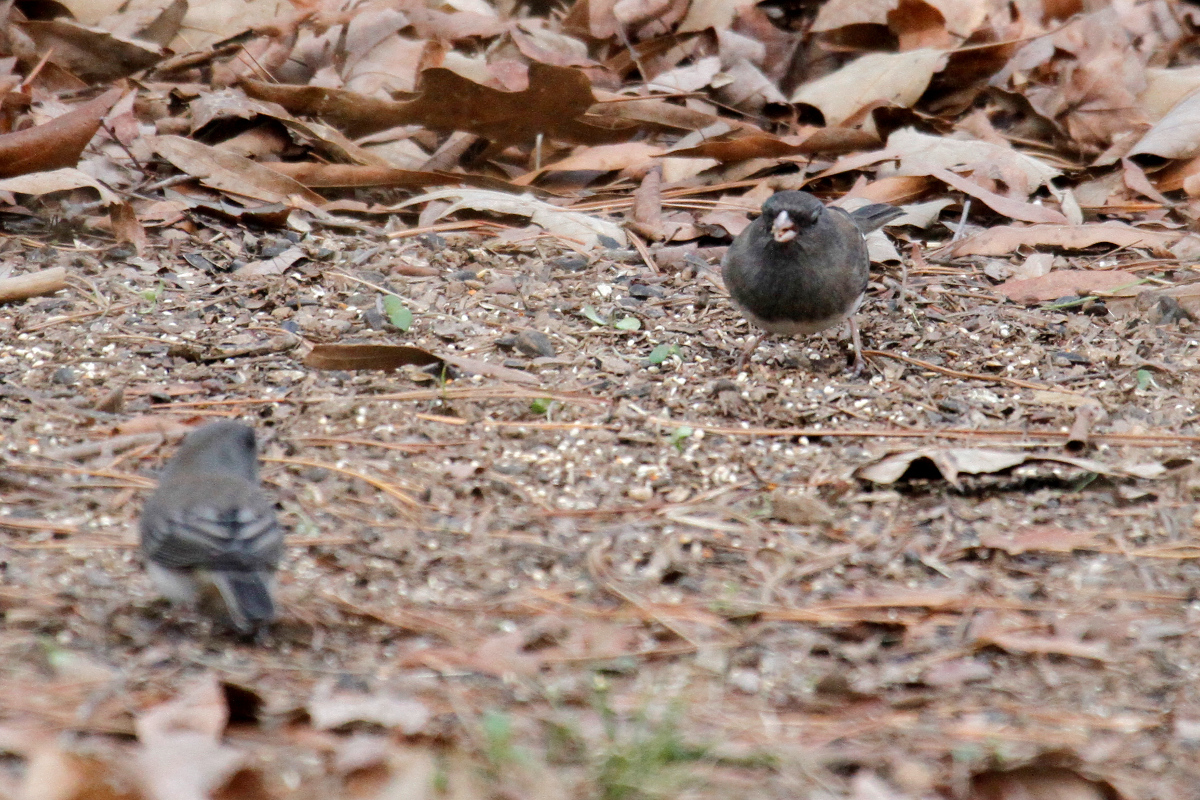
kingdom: Animalia
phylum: Chordata
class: Aves
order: Passeriformes
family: Passerellidae
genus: Junco
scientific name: Junco hyemalis
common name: Dark-eyed junco
